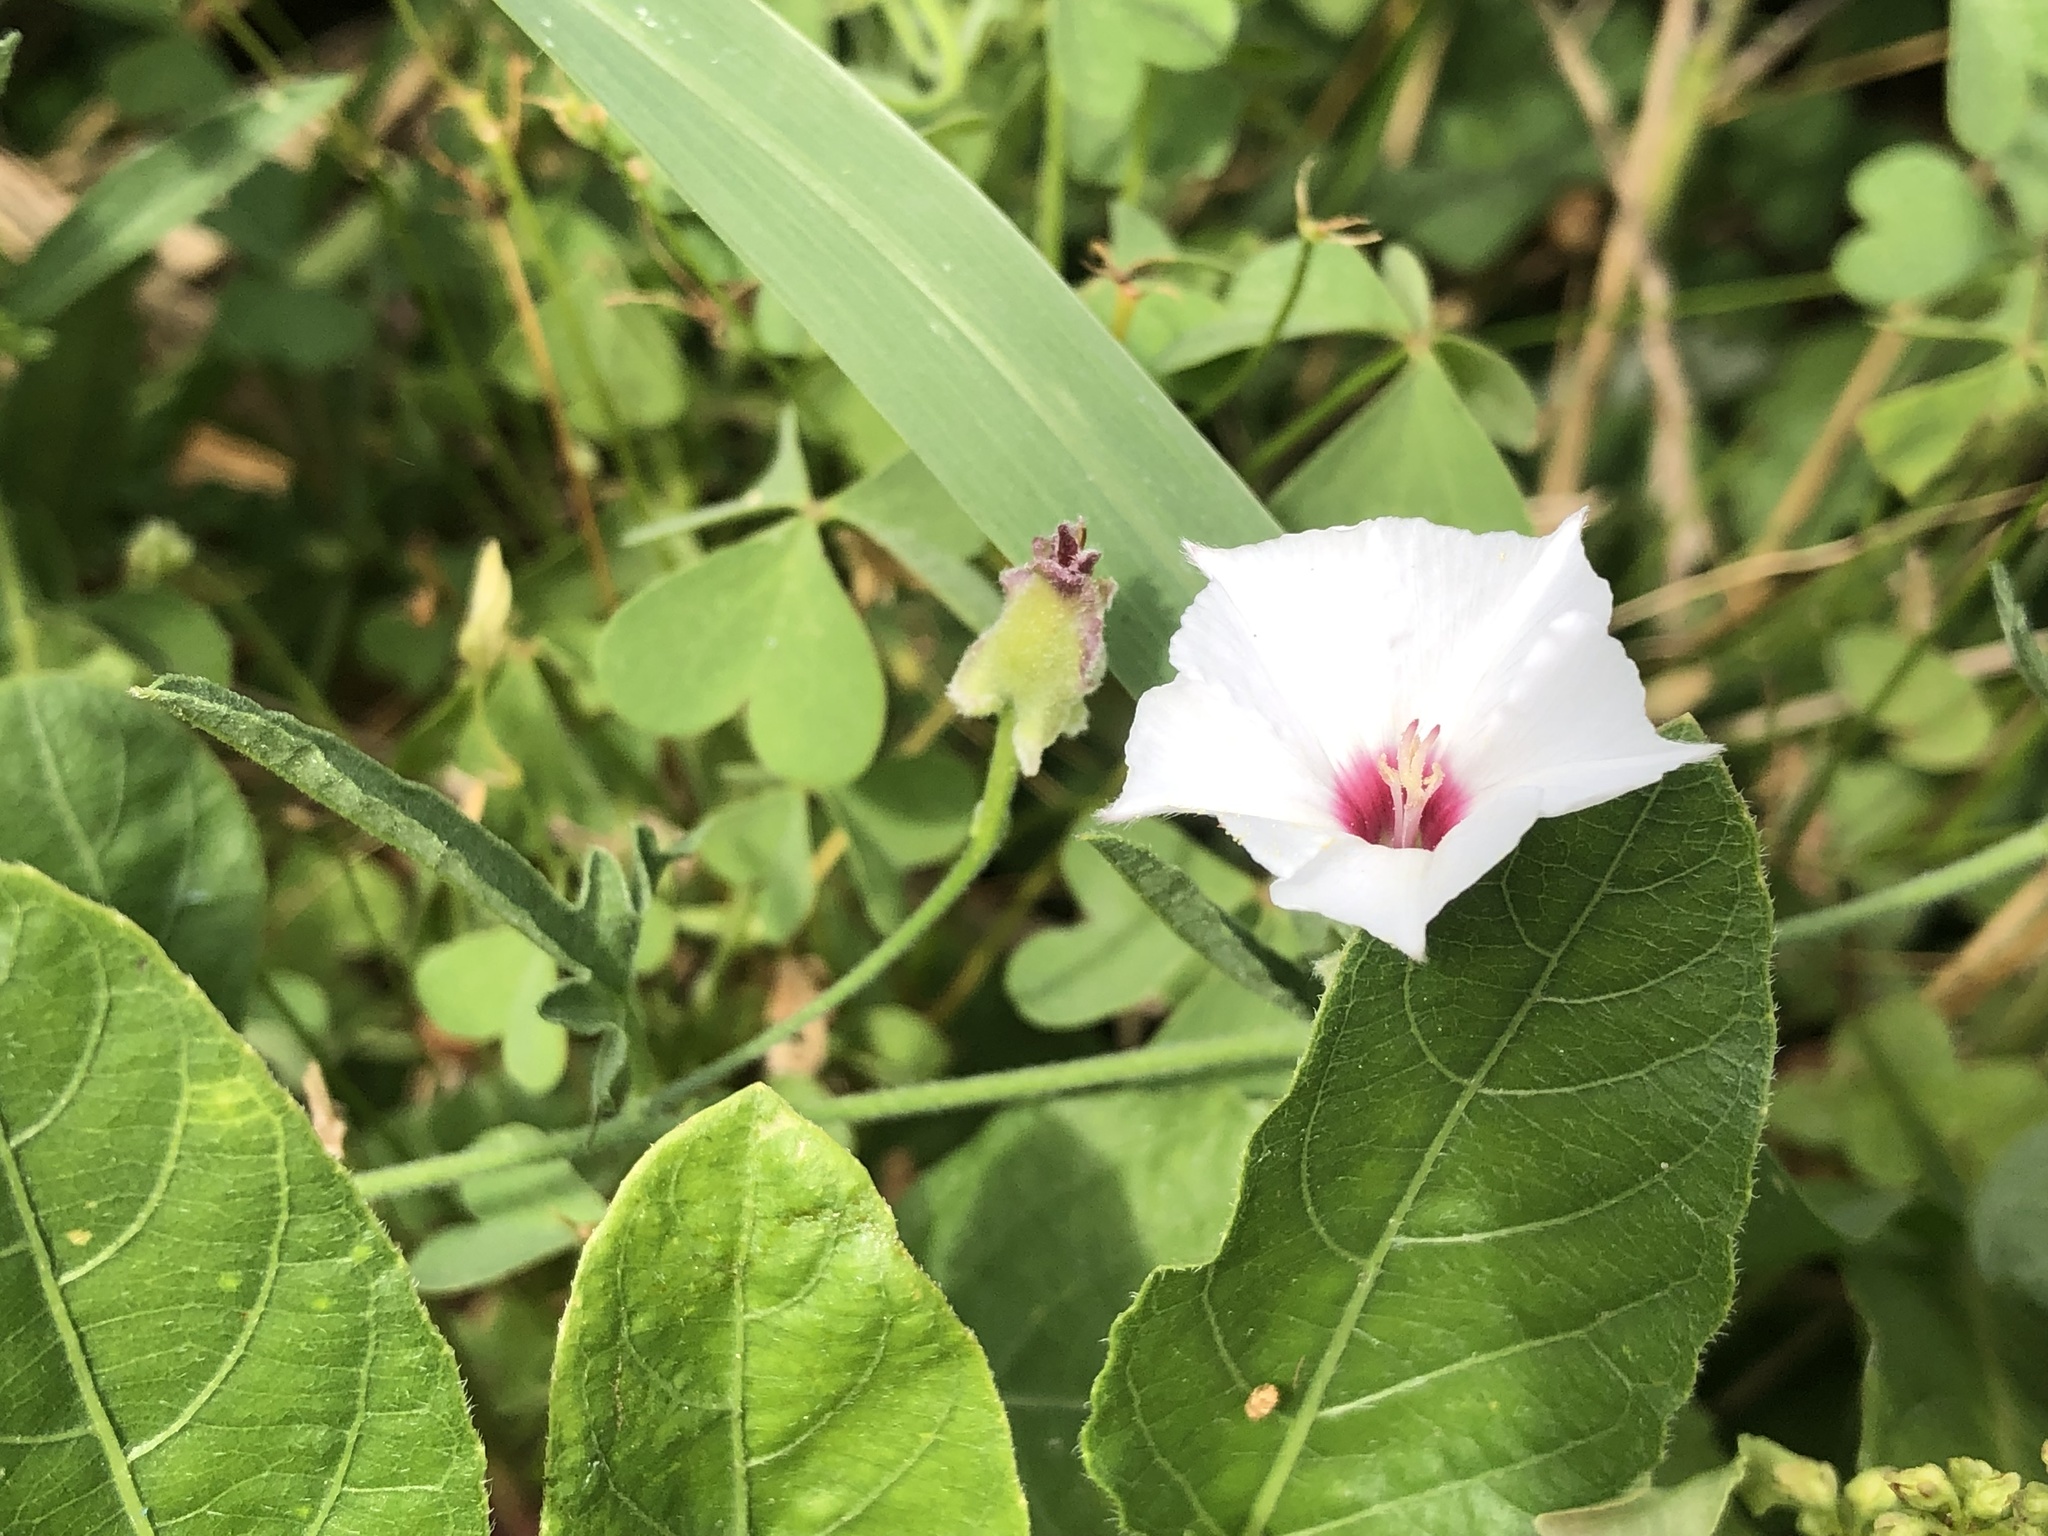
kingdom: Plantae
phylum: Tracheophyta
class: Magnoliopsida
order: Solanales
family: Convolvulaceae
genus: Convolvulus
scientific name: Convolvulus equitans
